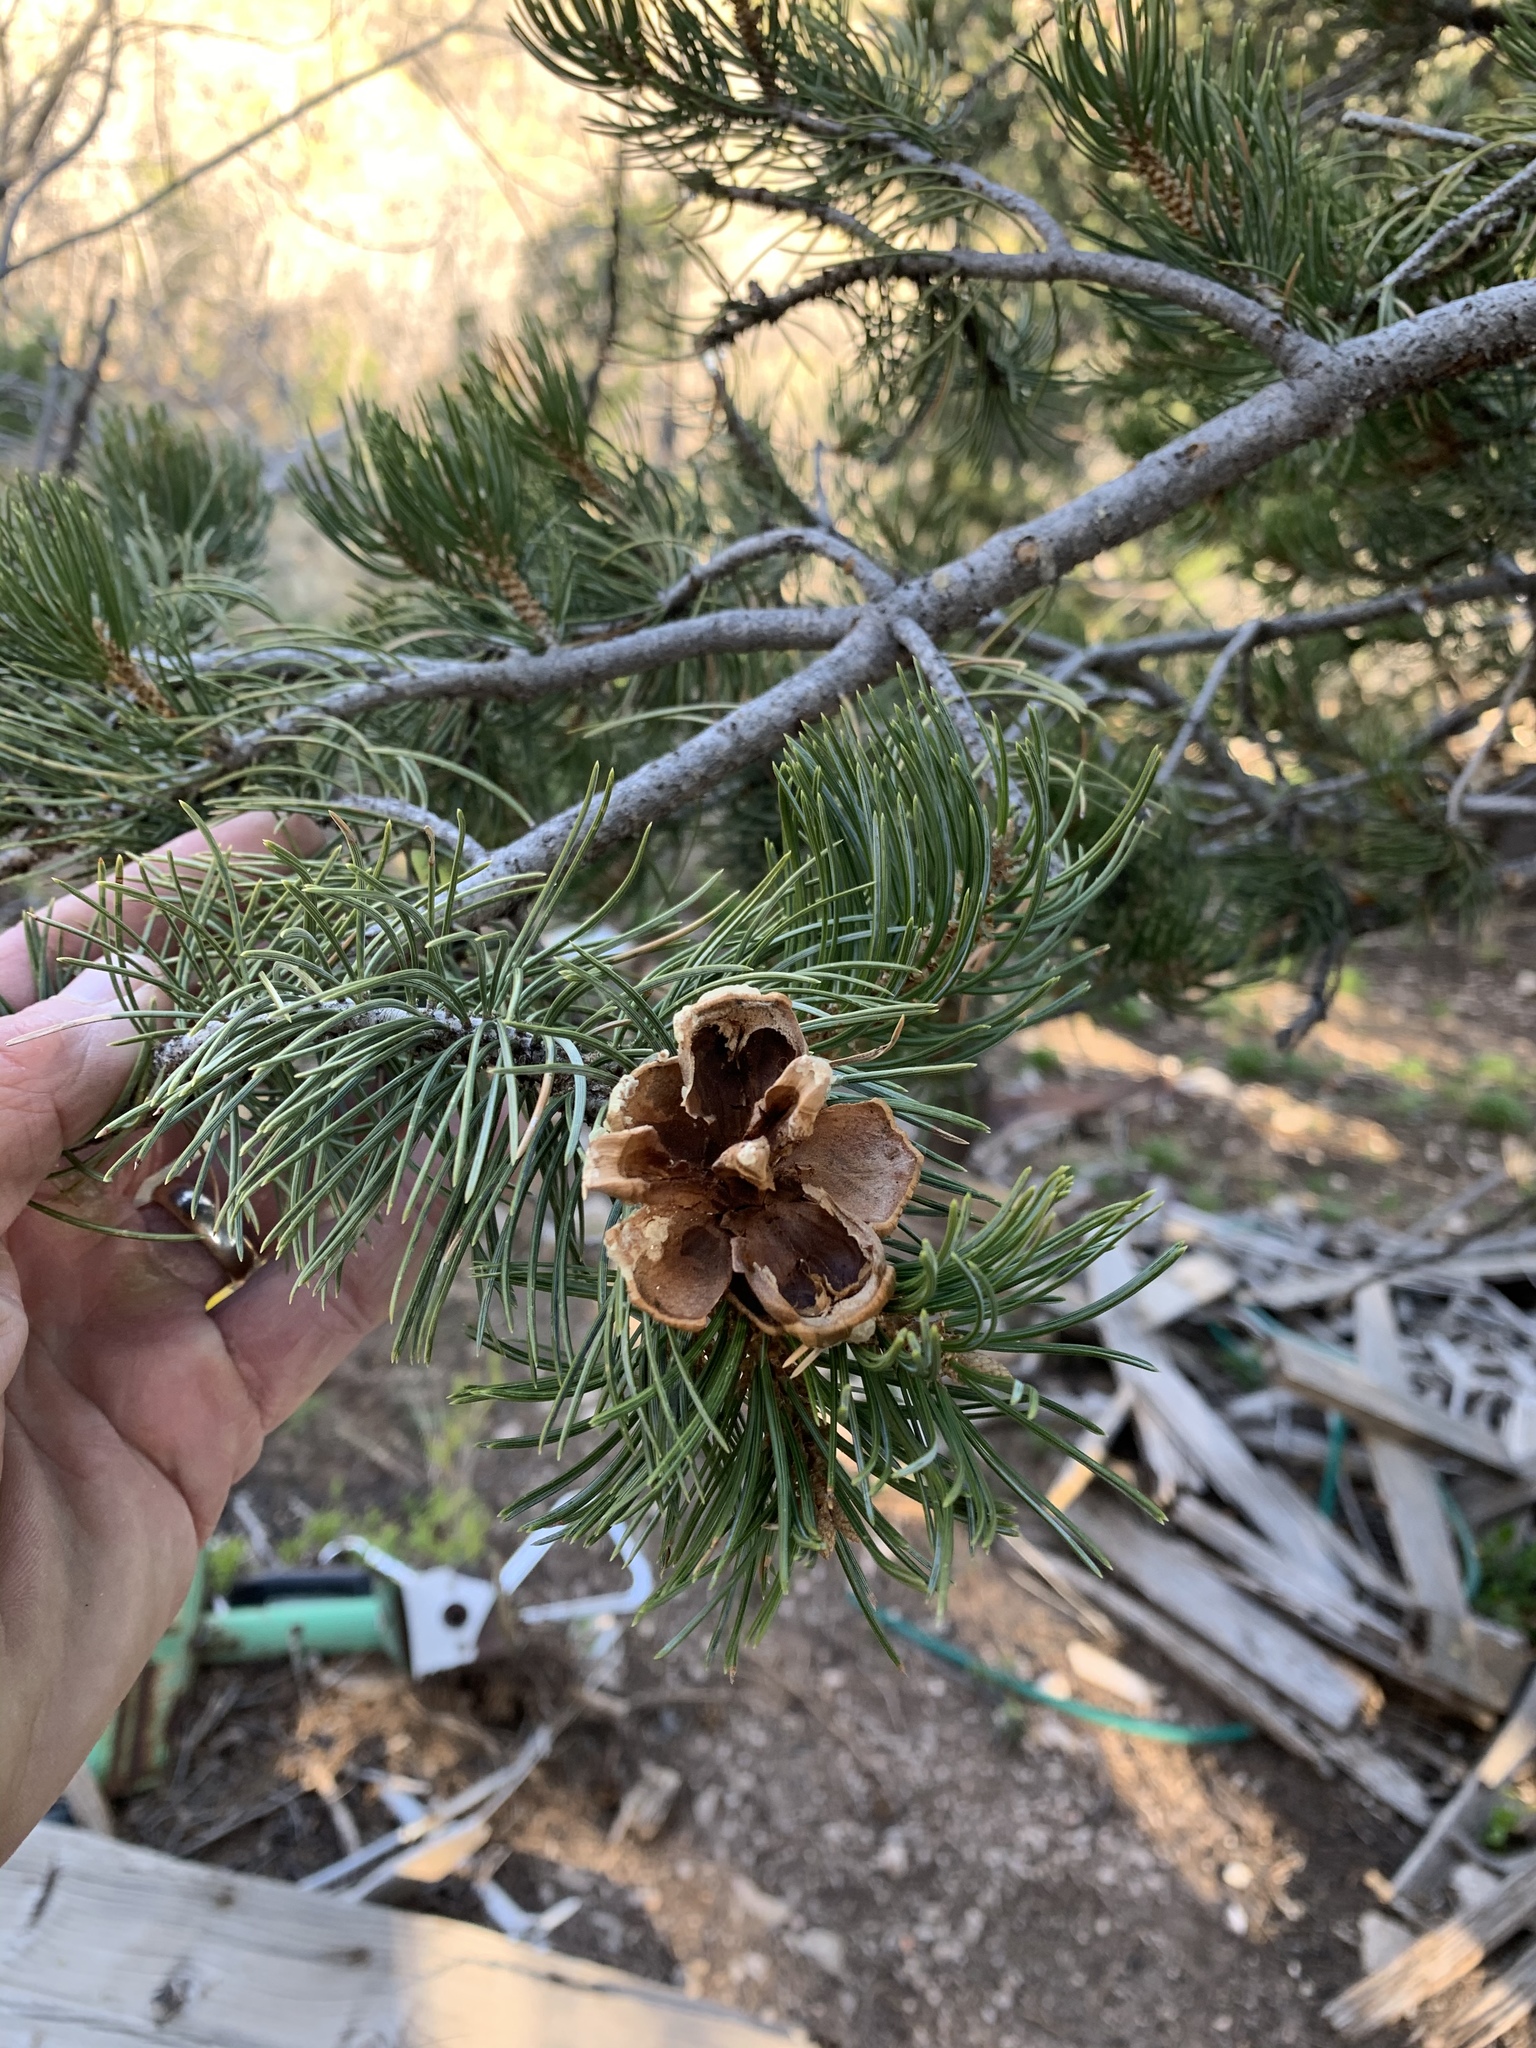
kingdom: Plantae
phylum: Tracheophyta
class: Pinopsida
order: Pinales
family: Pinaceae
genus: Pinus
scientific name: Pinus edulis
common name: Colorado pinyon
